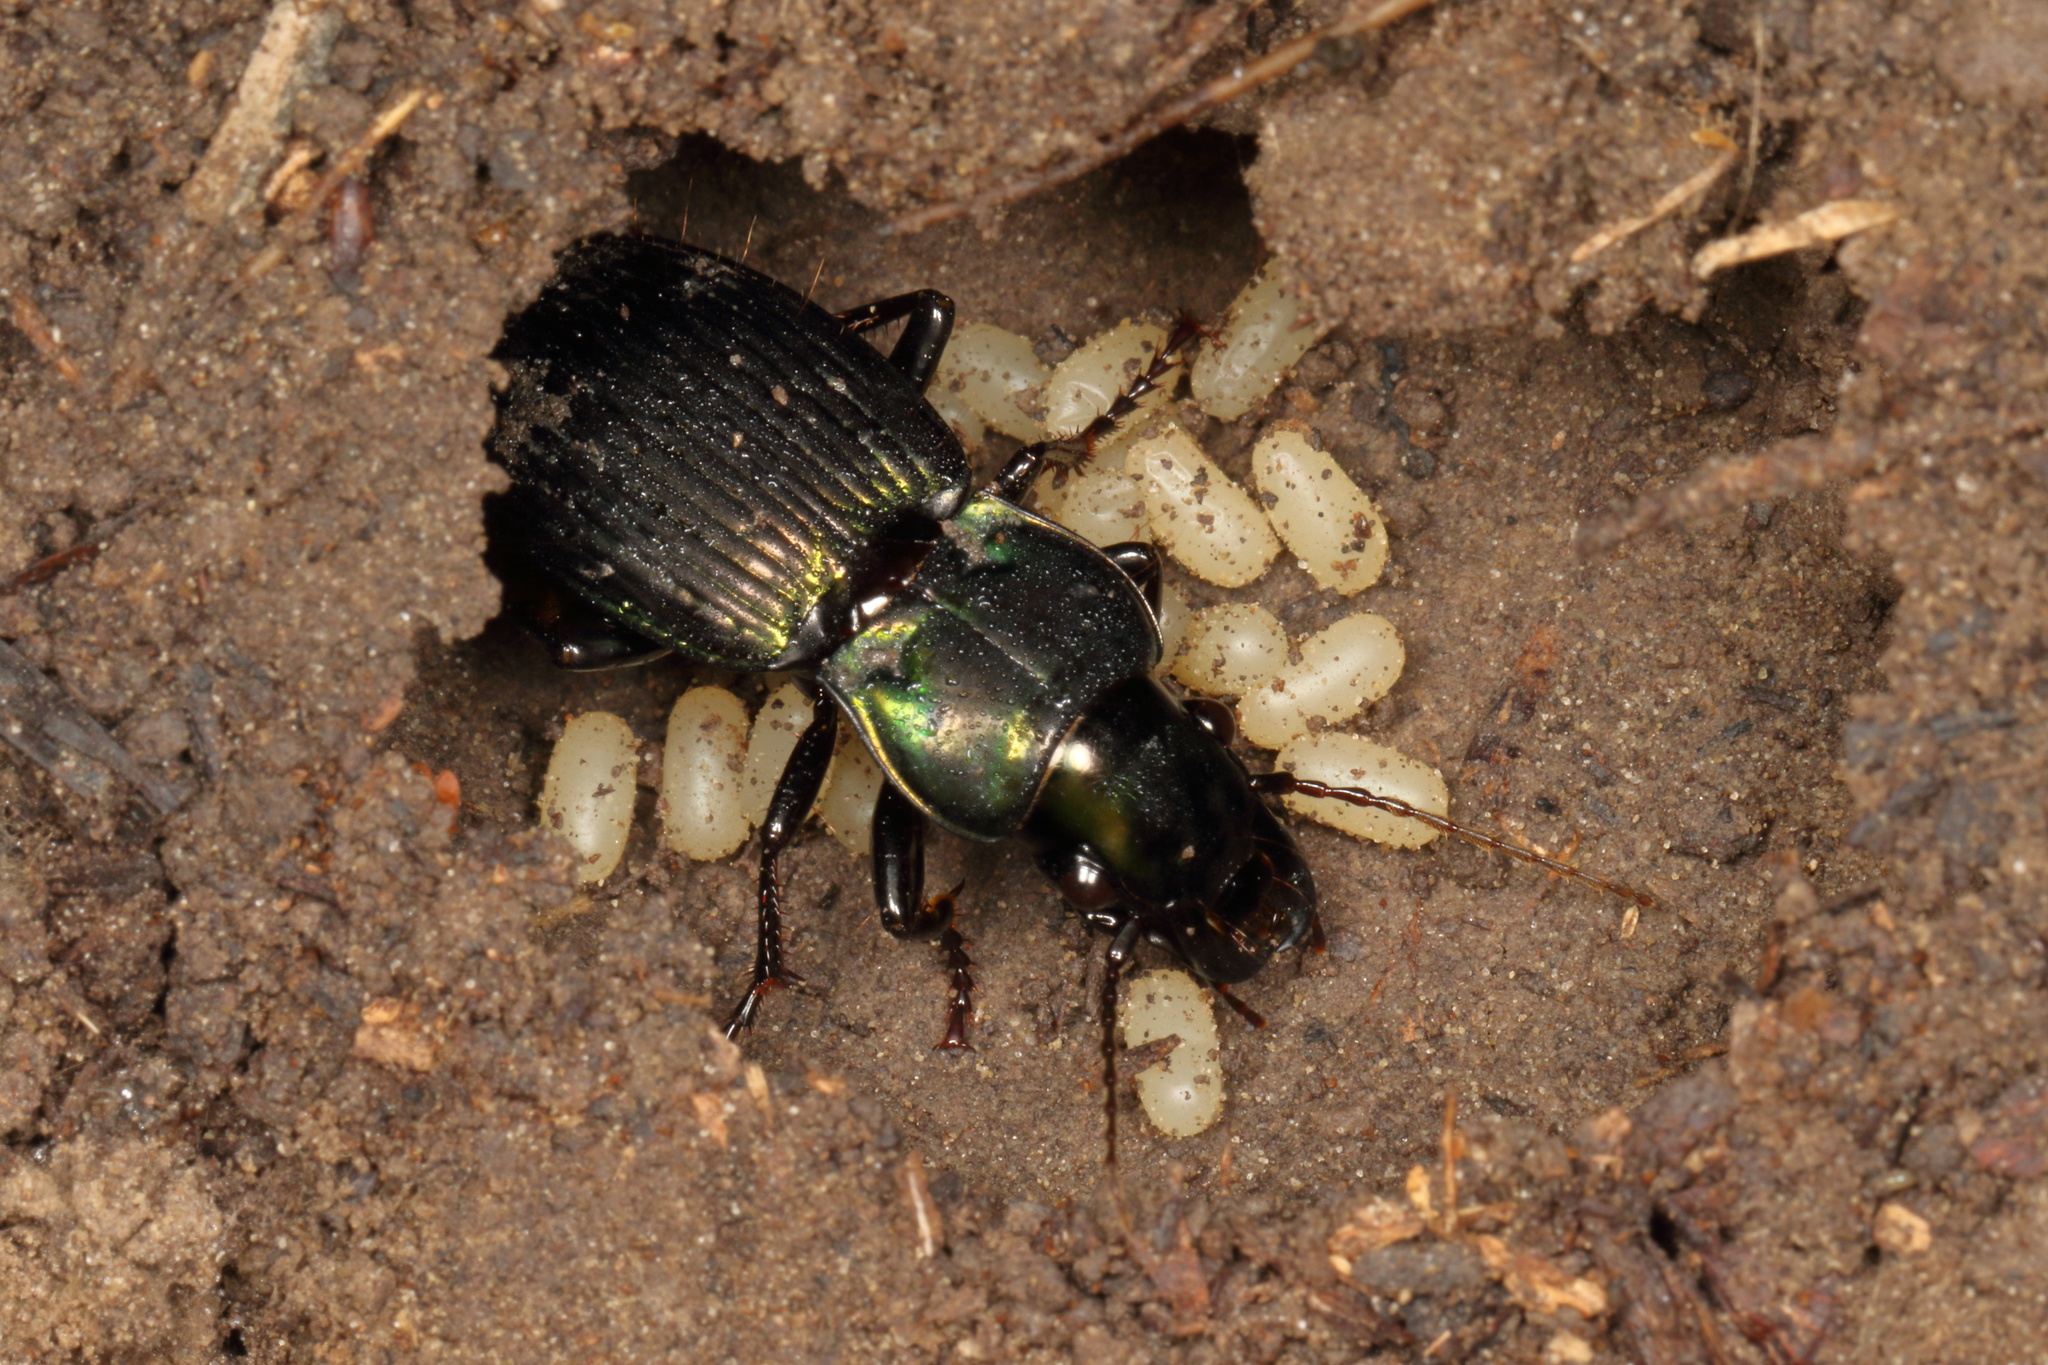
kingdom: Animalia
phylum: Arthropoda
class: Insecta
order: Coleoptera
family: Carabidae
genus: Megadromus
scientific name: Megadromus capito
